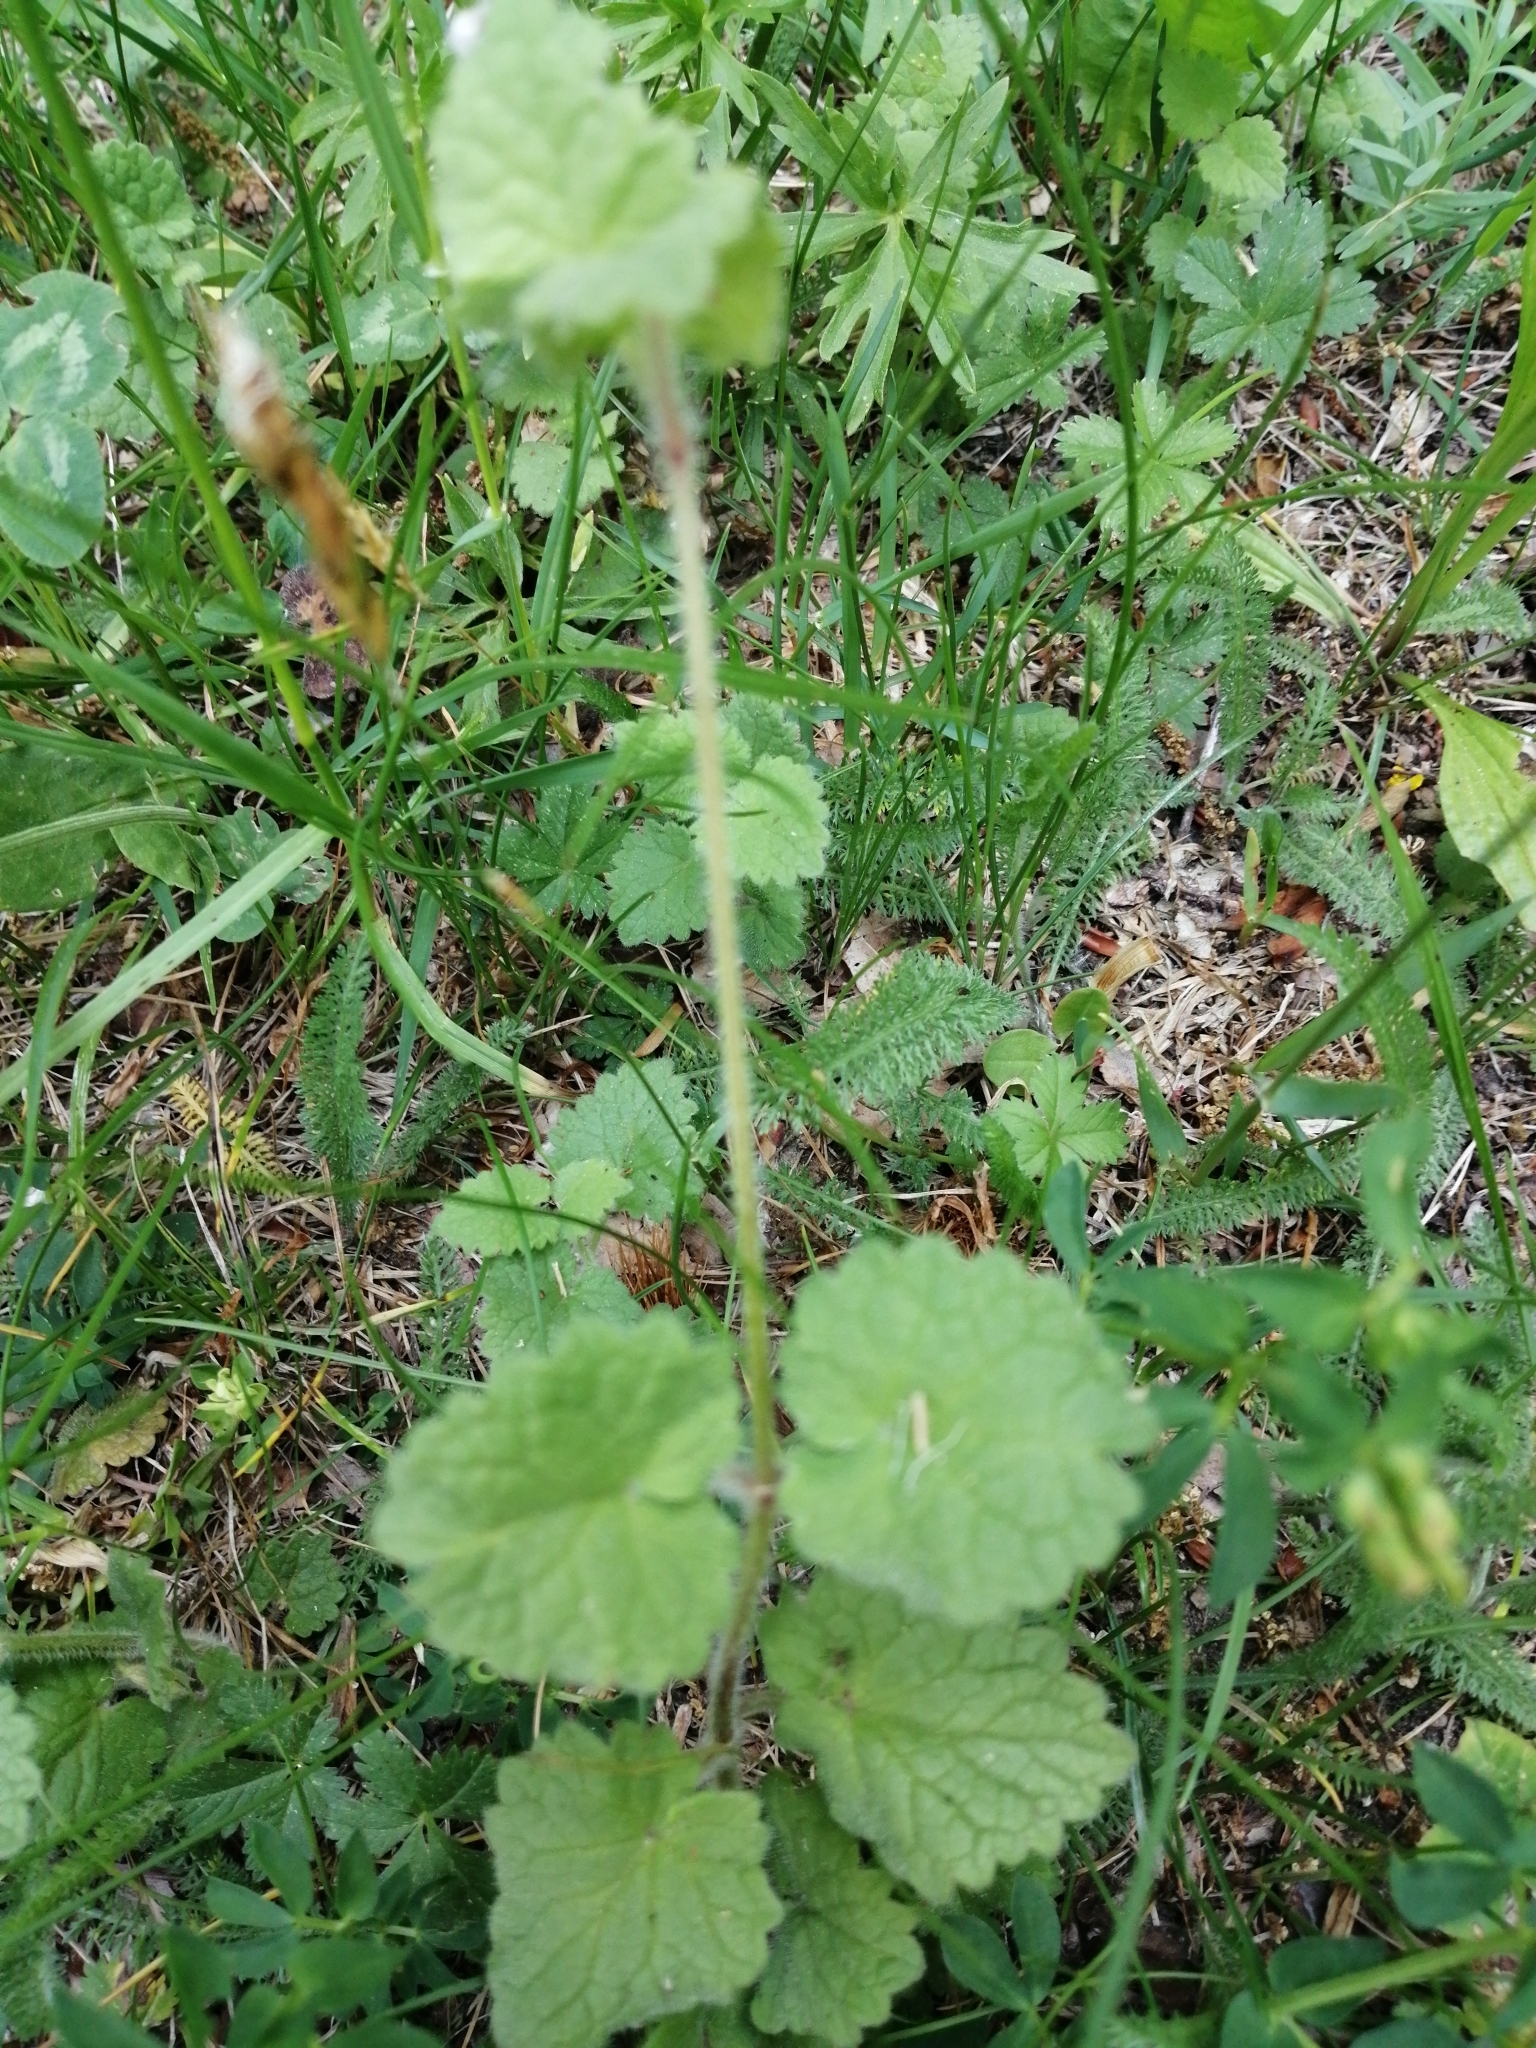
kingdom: Plantae
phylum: Tracheophyta
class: Magnoliopsida
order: Lamiales
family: Lamiaceae
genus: Glechoma
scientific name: Glechoma hederacea
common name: Ground ivy
